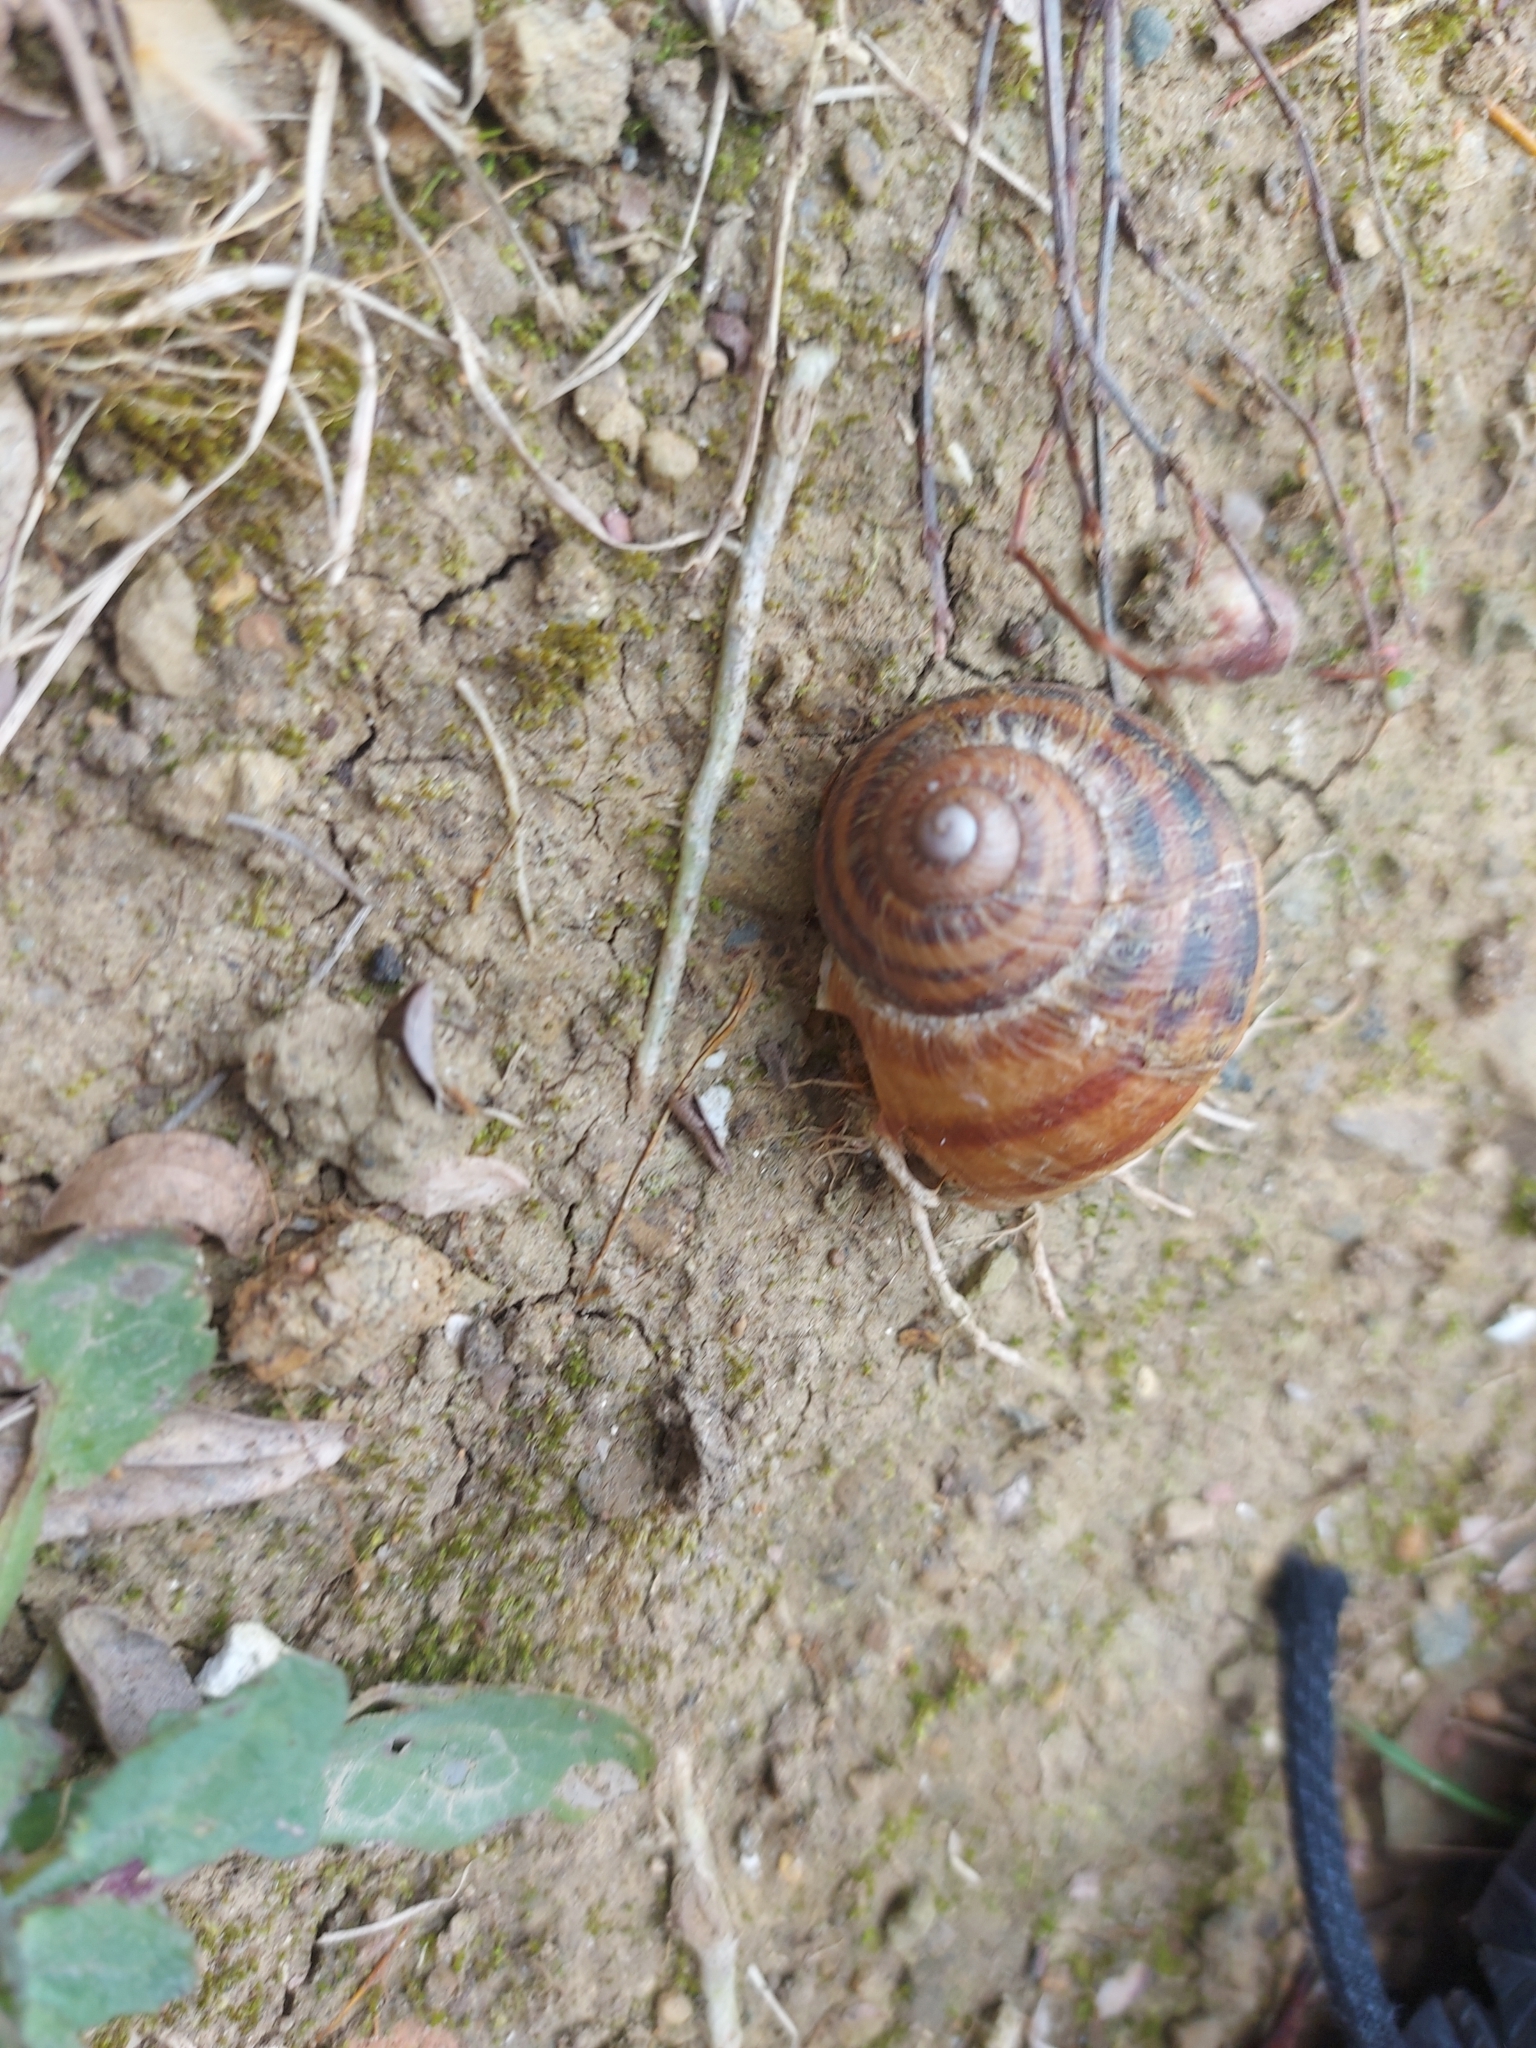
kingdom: Animalia
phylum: Mollusca
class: Gastropoda
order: Stylommatophora
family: Helicidae
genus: Cornu
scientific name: Cornu aspersum
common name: Brown garden snail
